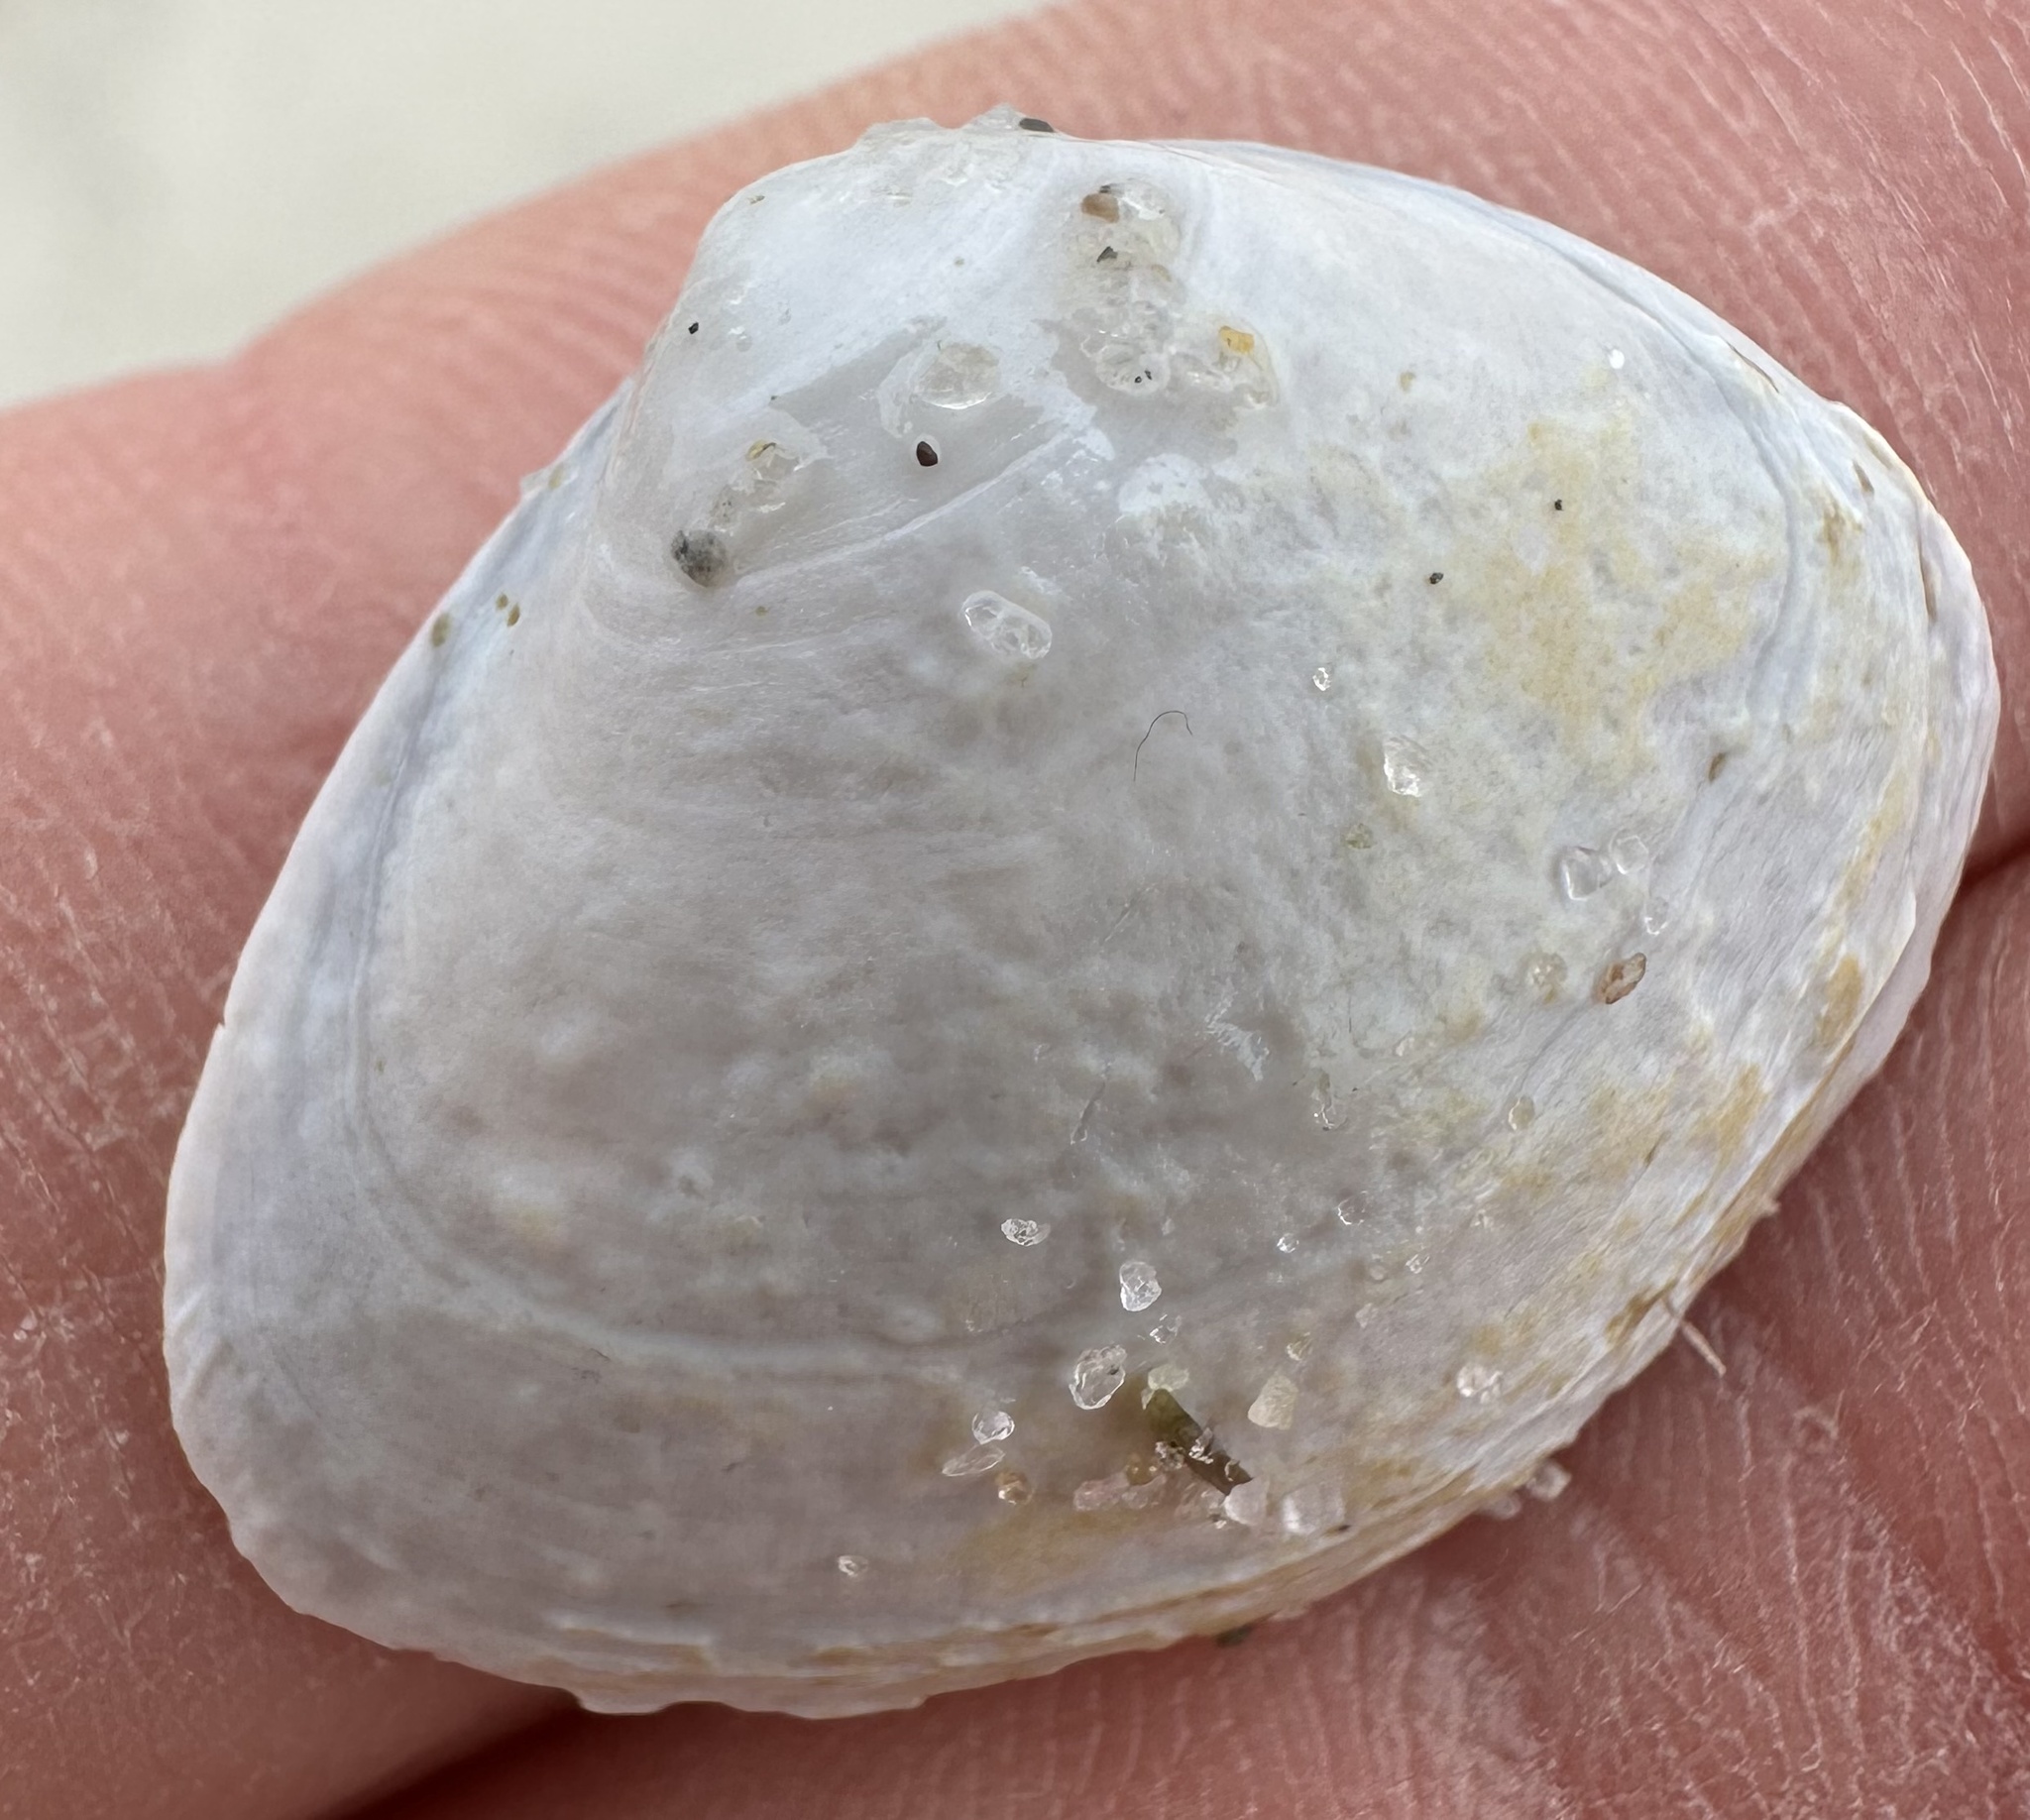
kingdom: Animalia
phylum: Mollusca
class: Bivalvia
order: Venerida
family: Mactridae
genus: Spisula
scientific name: Spisula solidissima
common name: Atlantic surf clam
